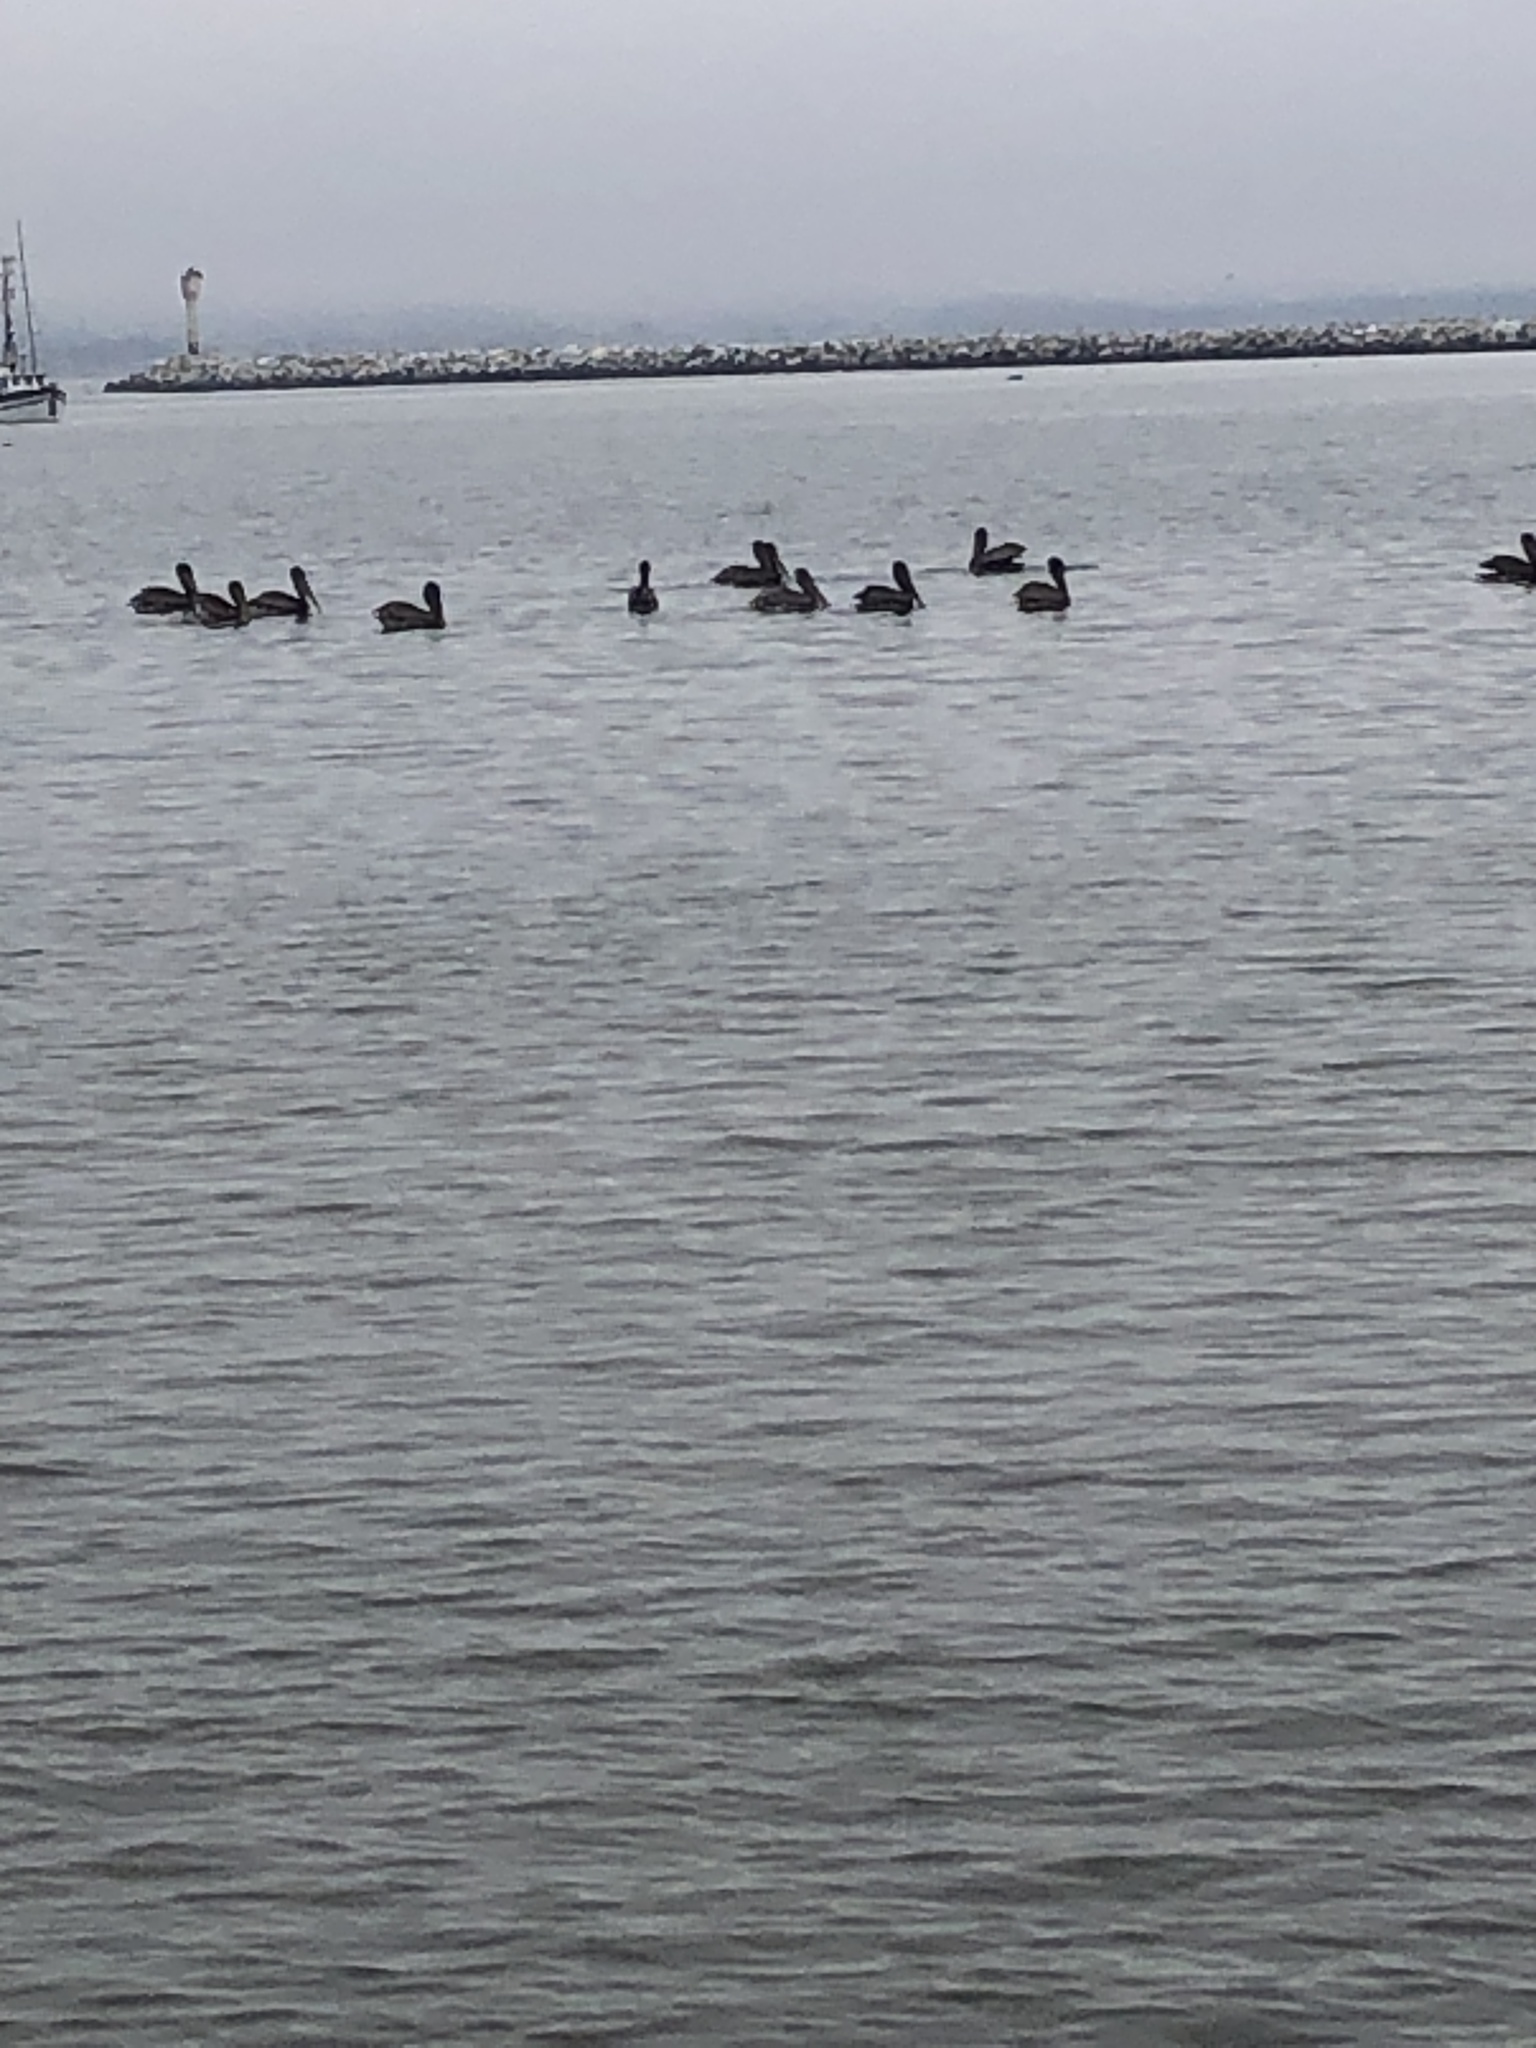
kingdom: Animalia
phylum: Chordata
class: Aves
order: Pelecaniformes
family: Pelecanidae
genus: Pelecanus
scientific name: Pelecanus occidentalis
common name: Brown pelican
